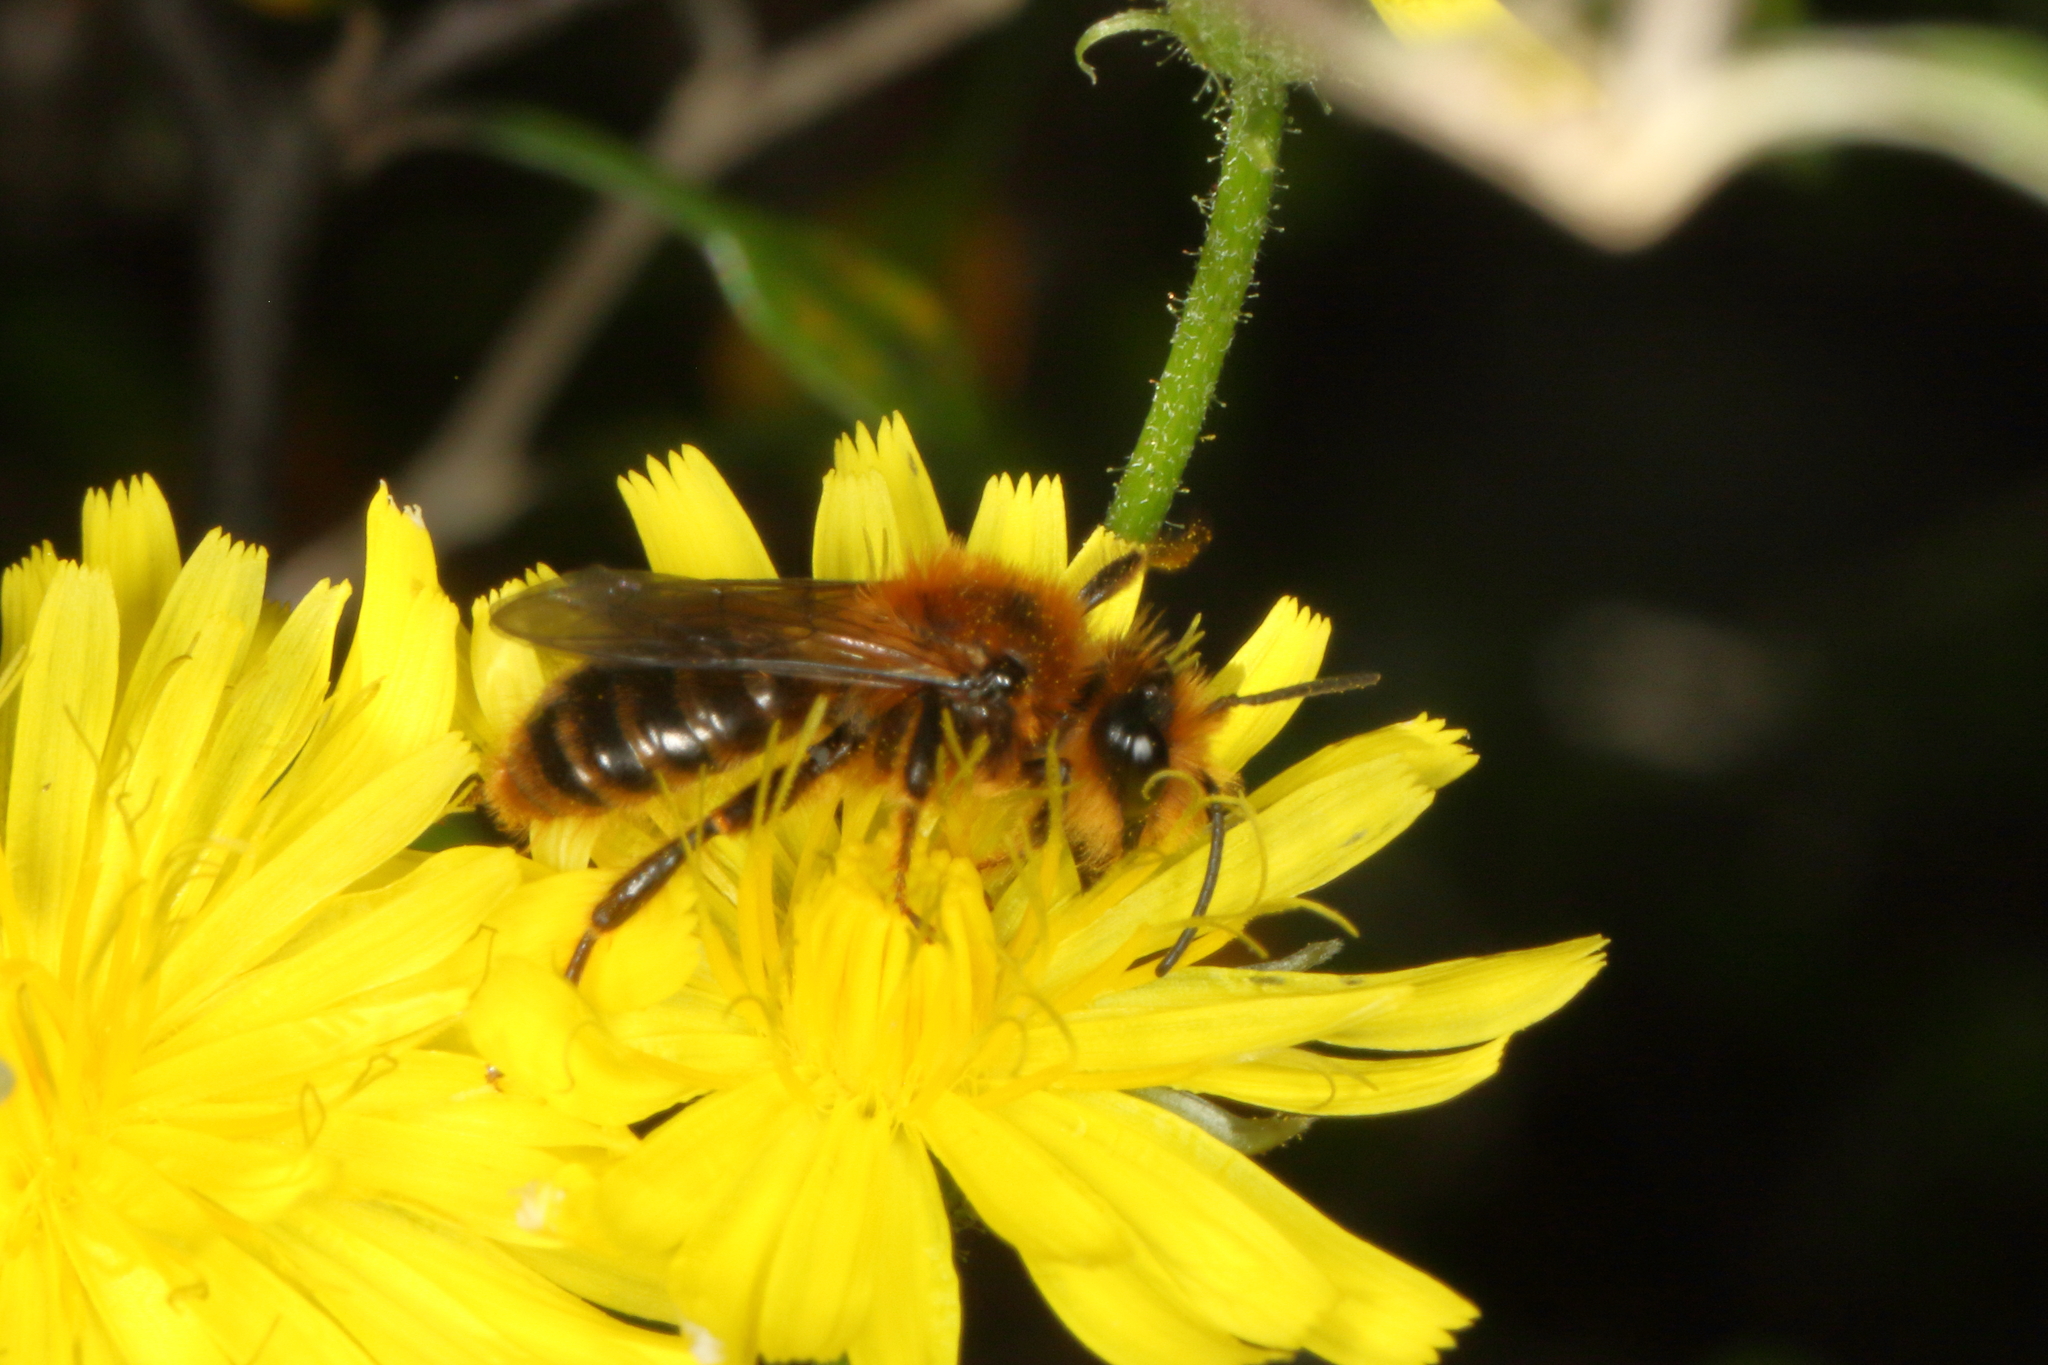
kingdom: Animalia
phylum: Arthropoda
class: Insecta
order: Hymenoptera
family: Colletidae
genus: Leioproctus
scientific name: Leioproctus fulvescens
